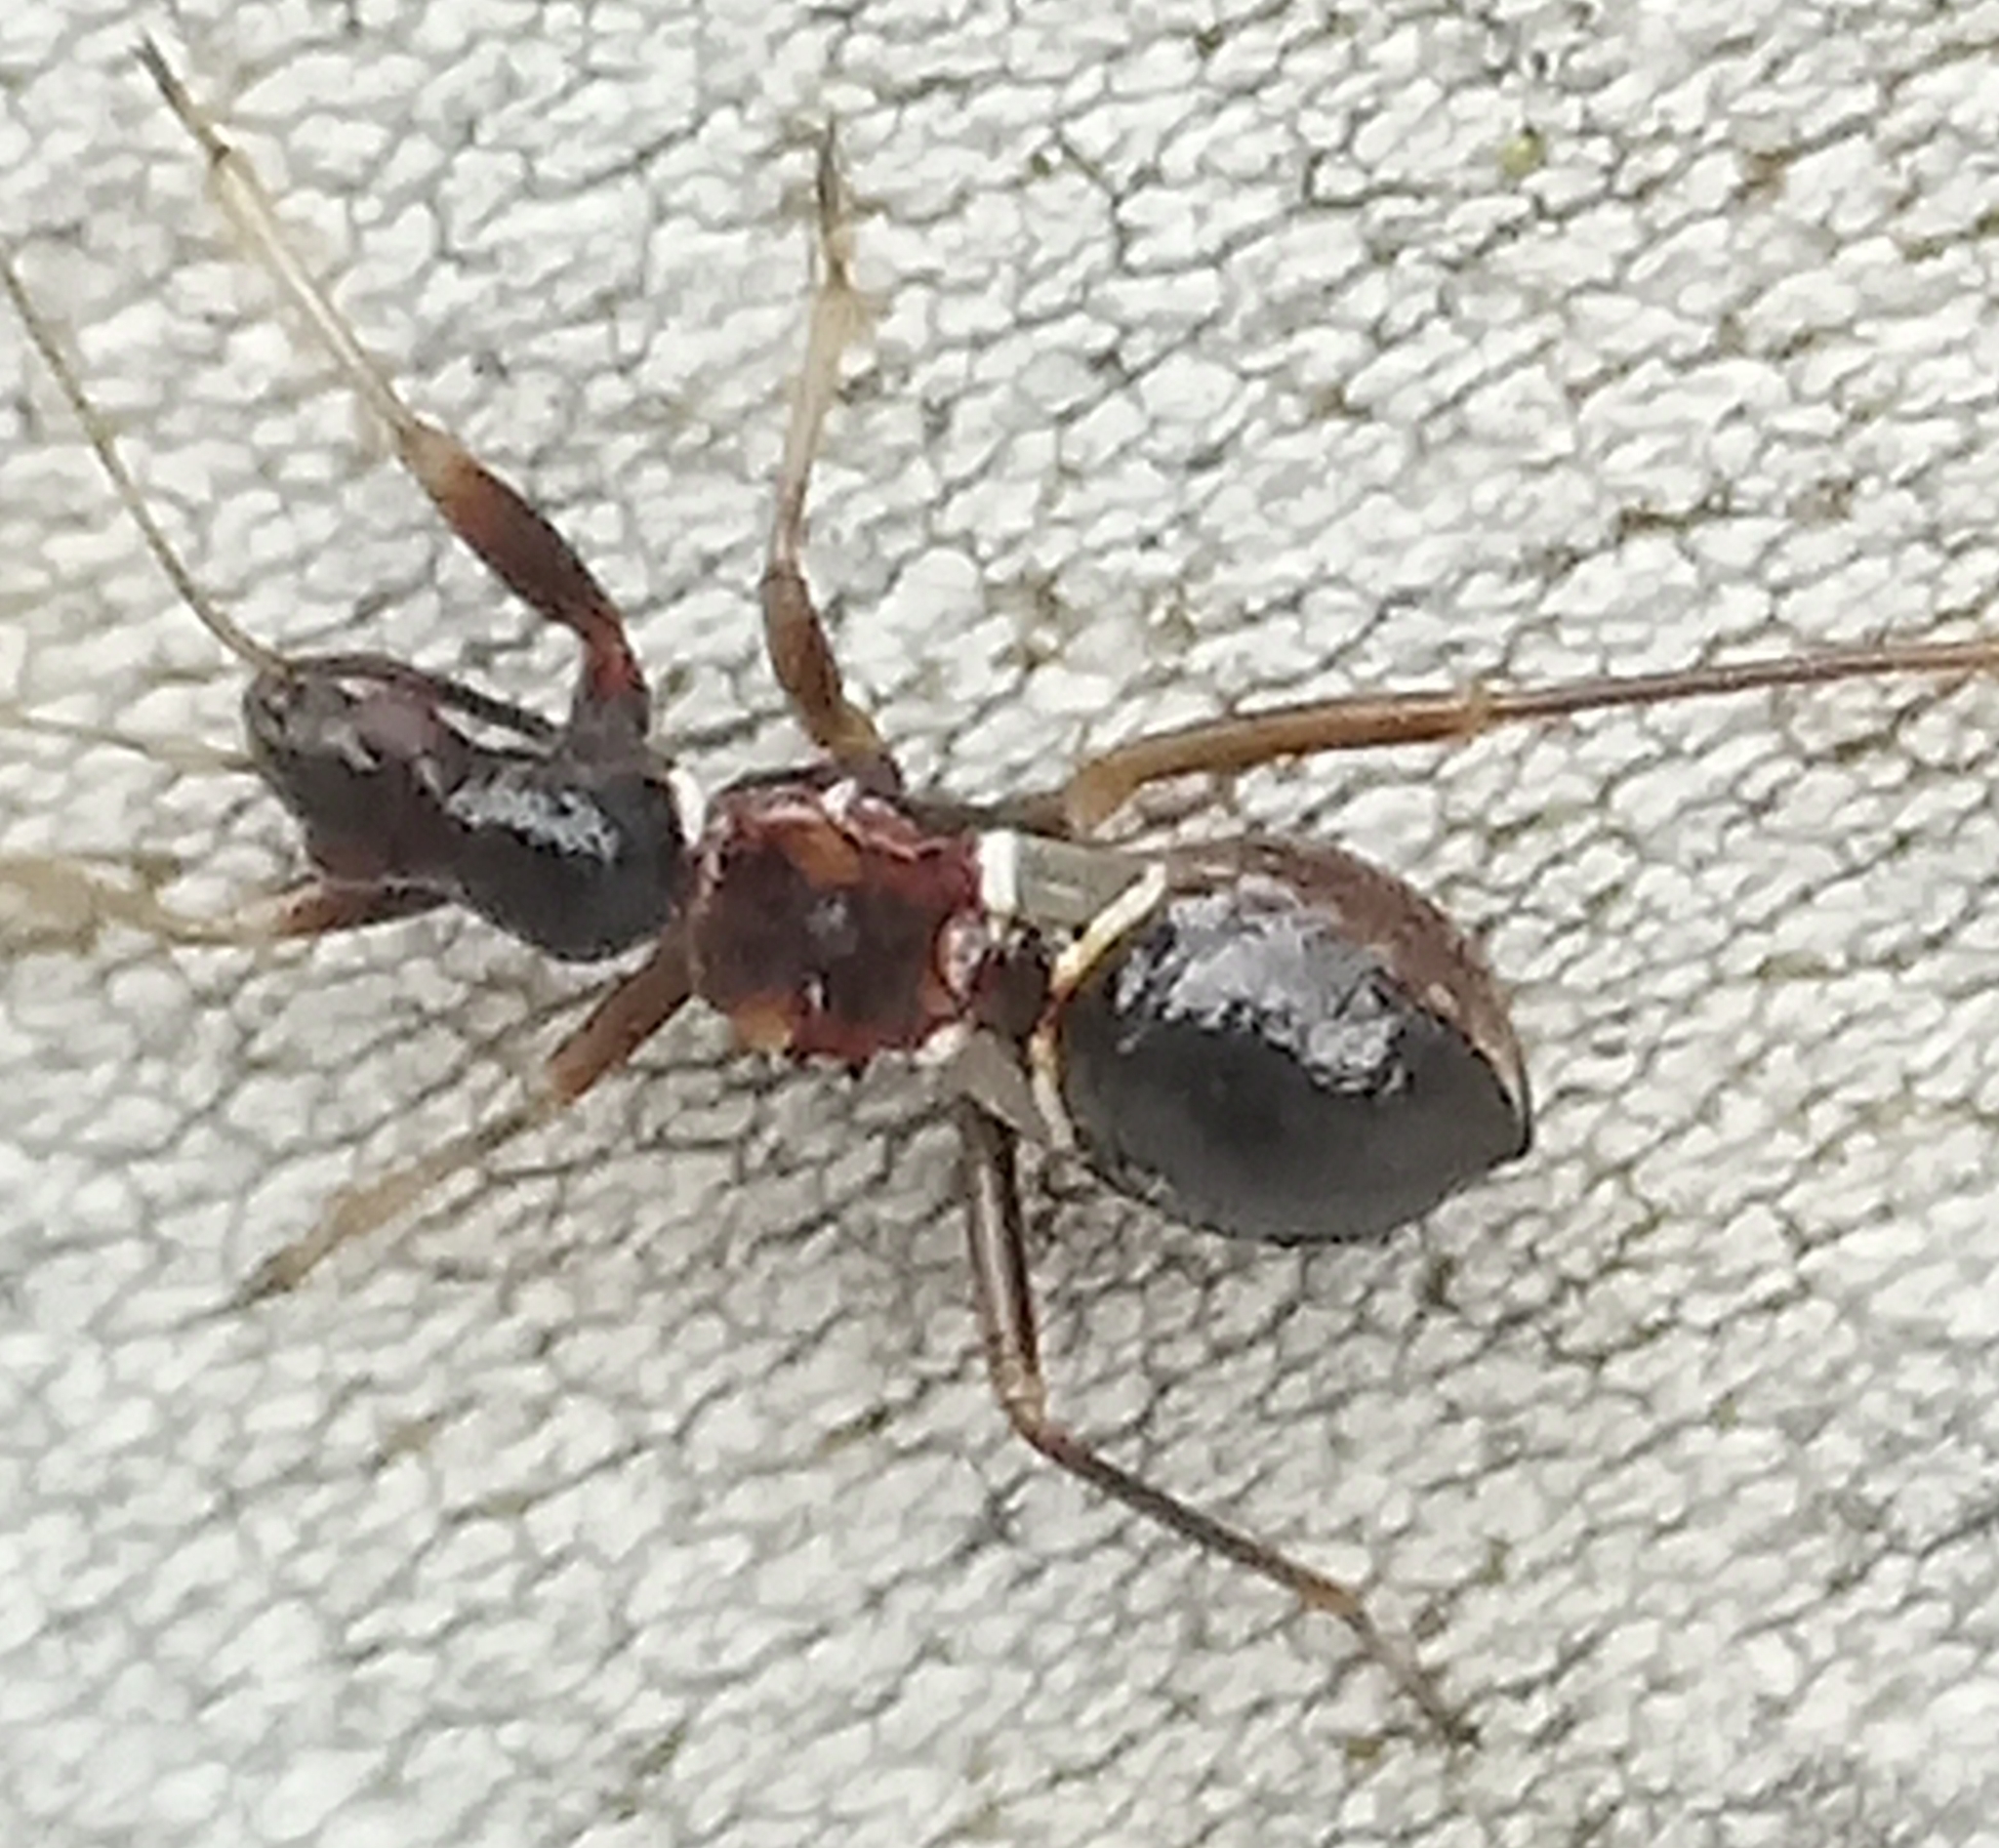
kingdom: Animalia
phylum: Arthropoda
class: Insecta
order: Hemiptera
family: Nabidae
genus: Himacerus
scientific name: Himacerus mirmicoides
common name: Ant damsel bug
